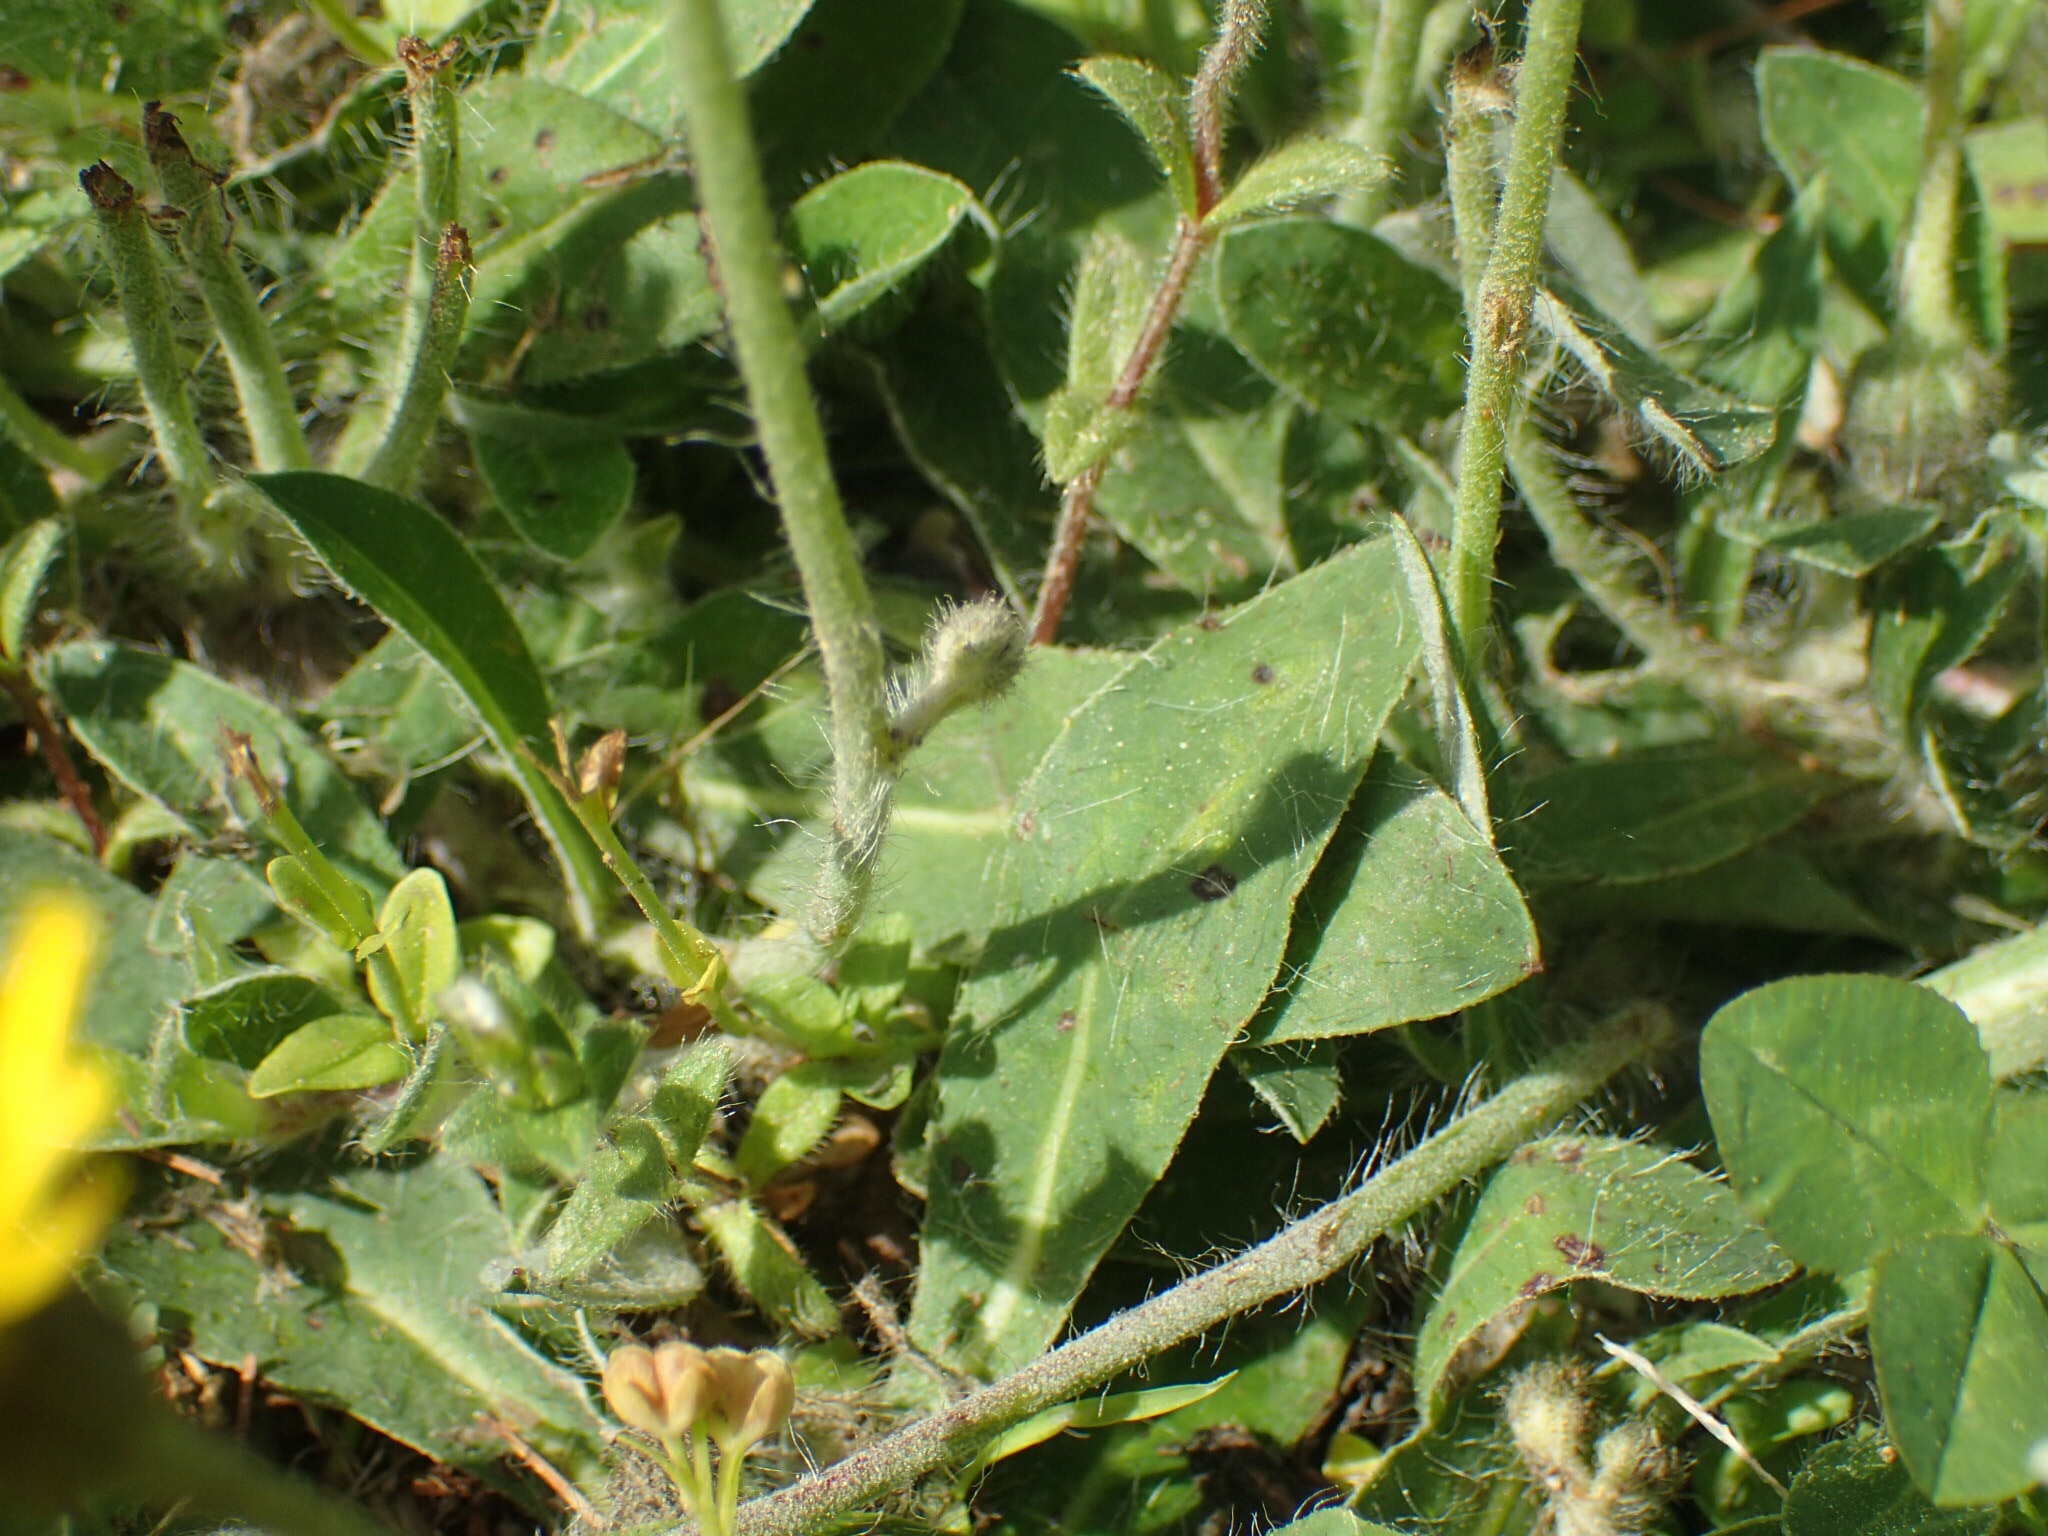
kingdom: Plantae
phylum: Tracheophyta
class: Magnoliopsida
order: Asterales
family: Asteraceae
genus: Pilosella
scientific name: Pilosella officinarum
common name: Mouse-ear hawkweed
